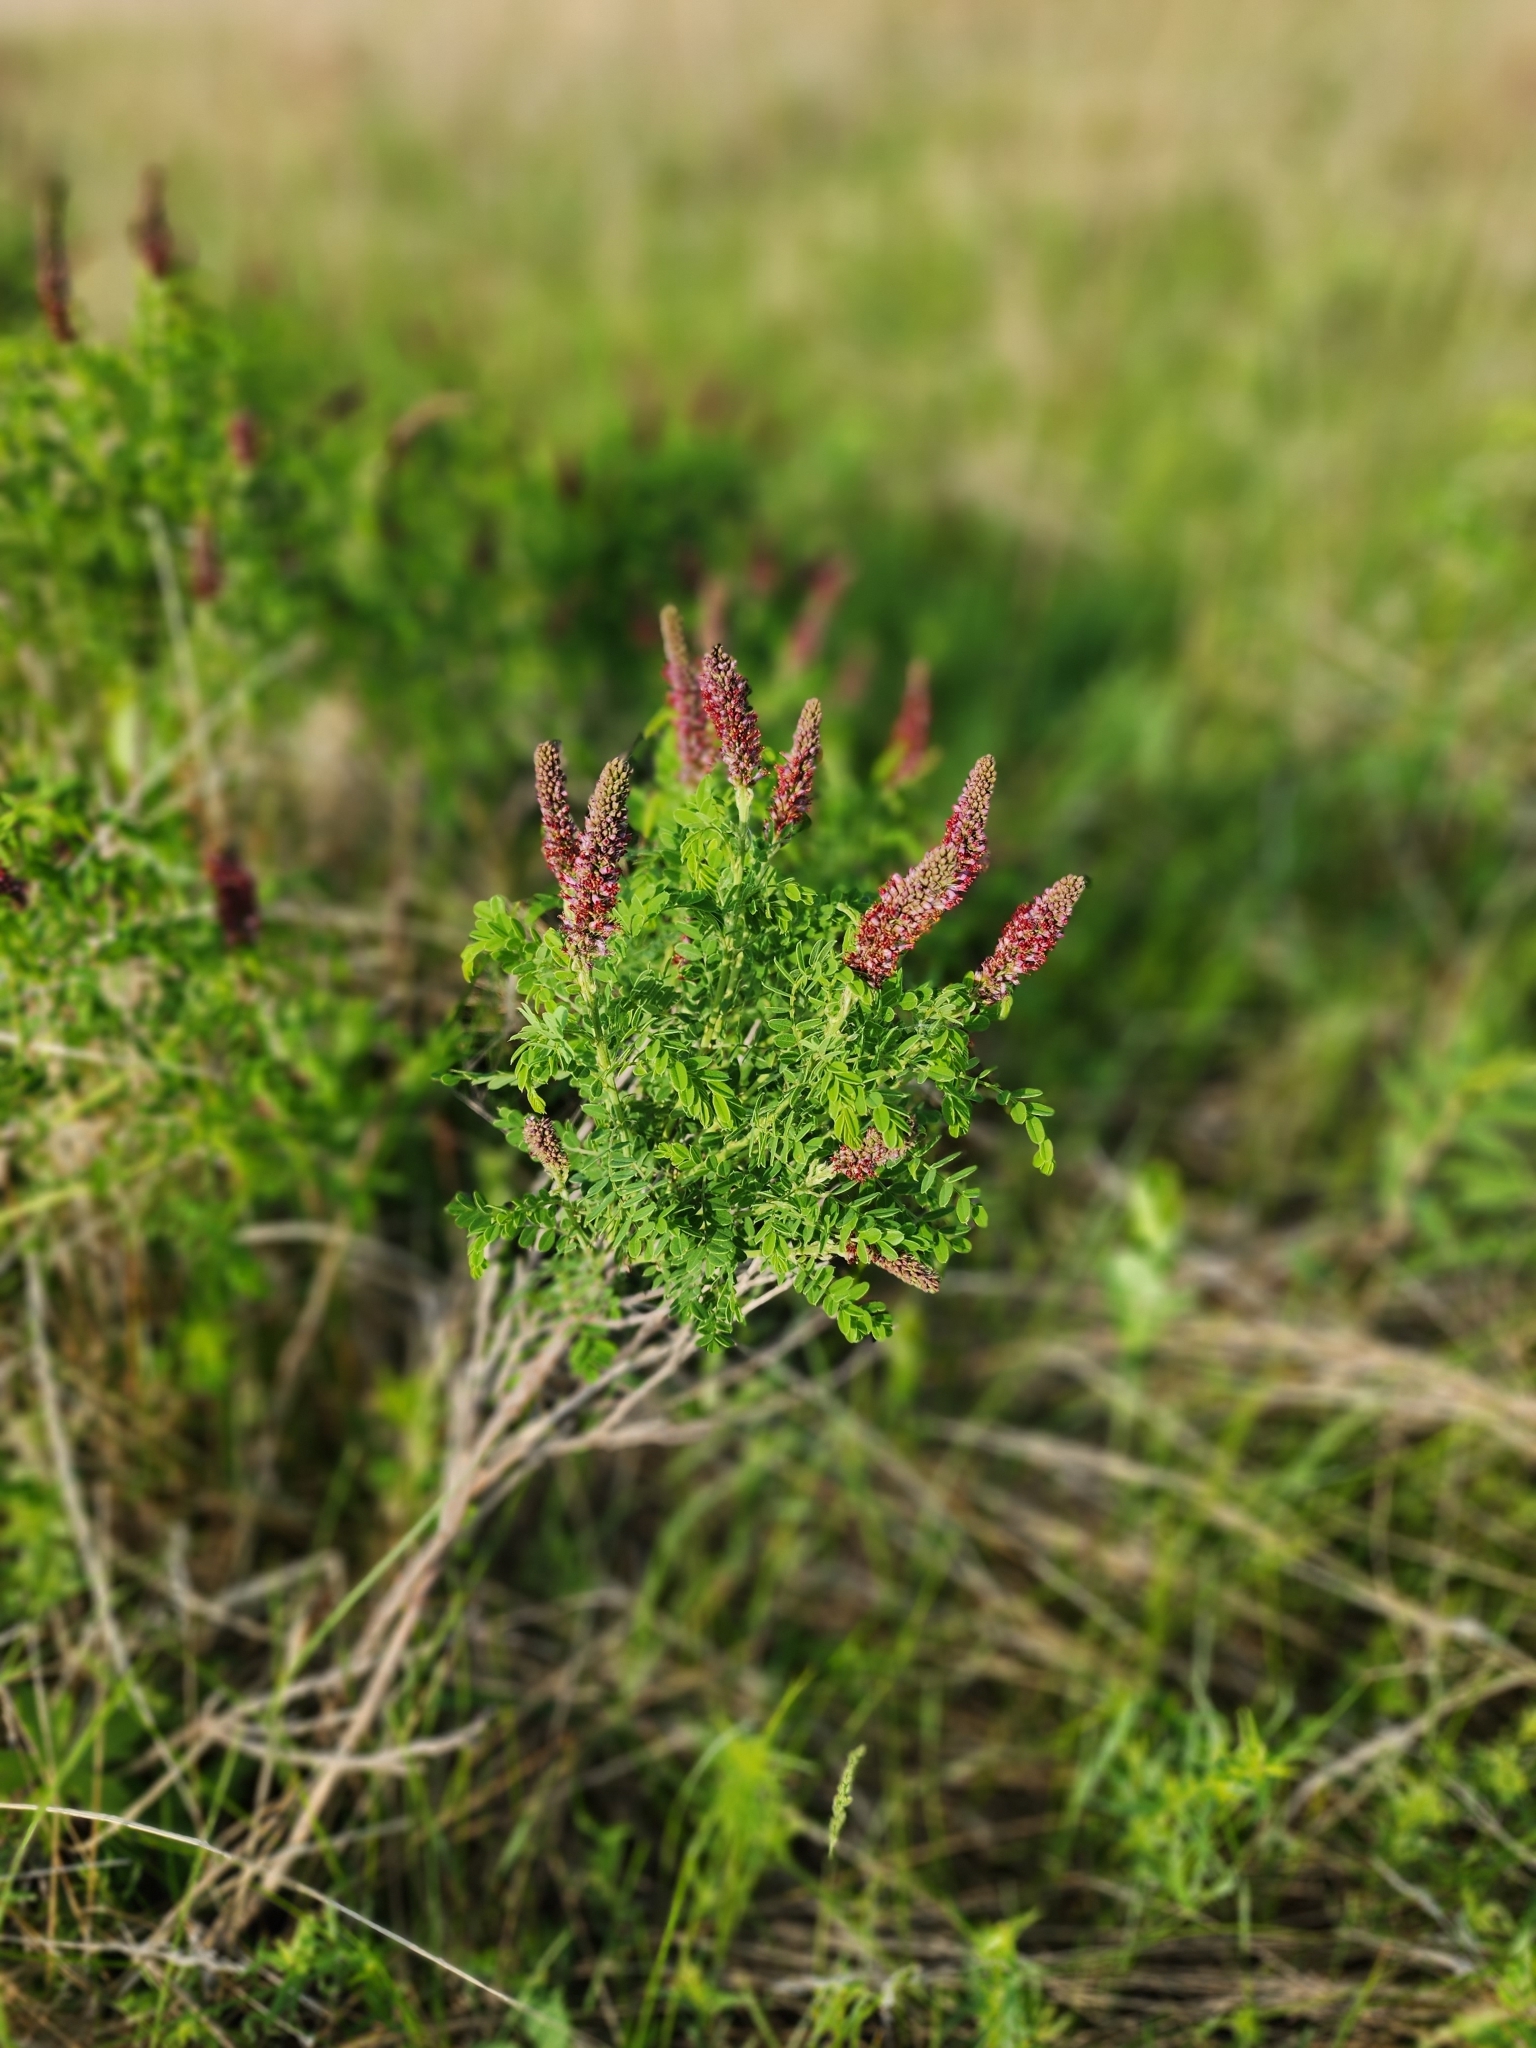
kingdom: Plantae
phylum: Tracheophyta
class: Magnoliopsida
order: Fabales
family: Fabaceae
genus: Amorpha
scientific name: Amorpha nana
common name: Fragrant false indigo
